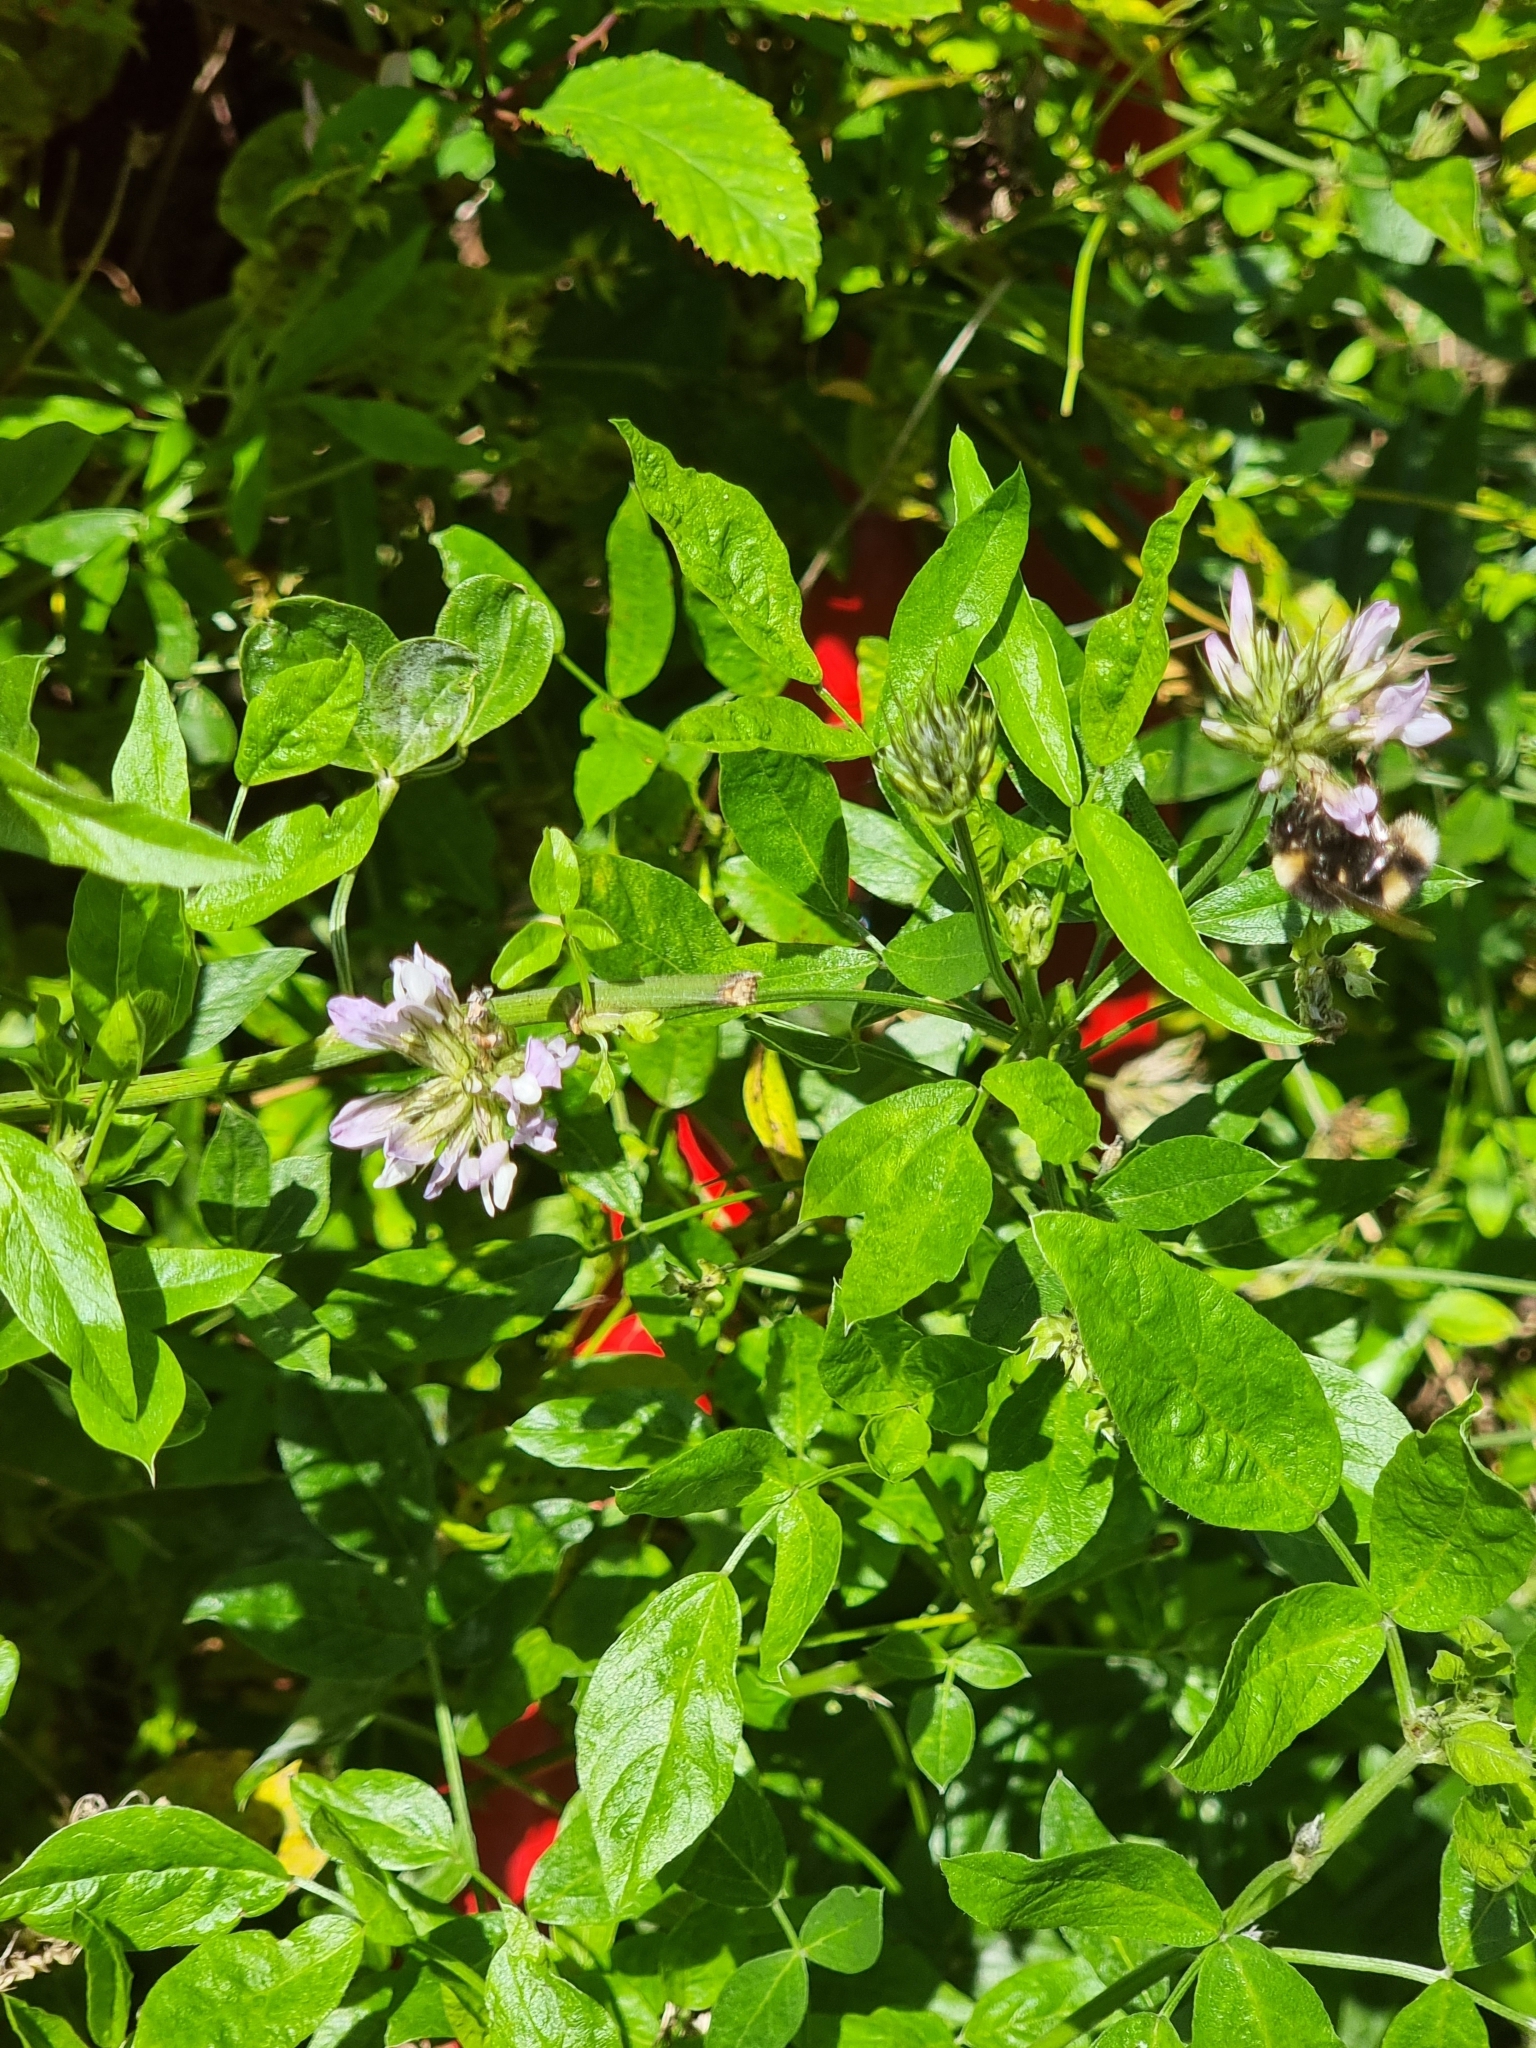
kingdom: Plantae
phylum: Tracheophyta
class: Magnoliopsida
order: Fabales
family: Fabaceae
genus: Bituminaria
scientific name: Bituminaria bituminosa
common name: Arabian pea
